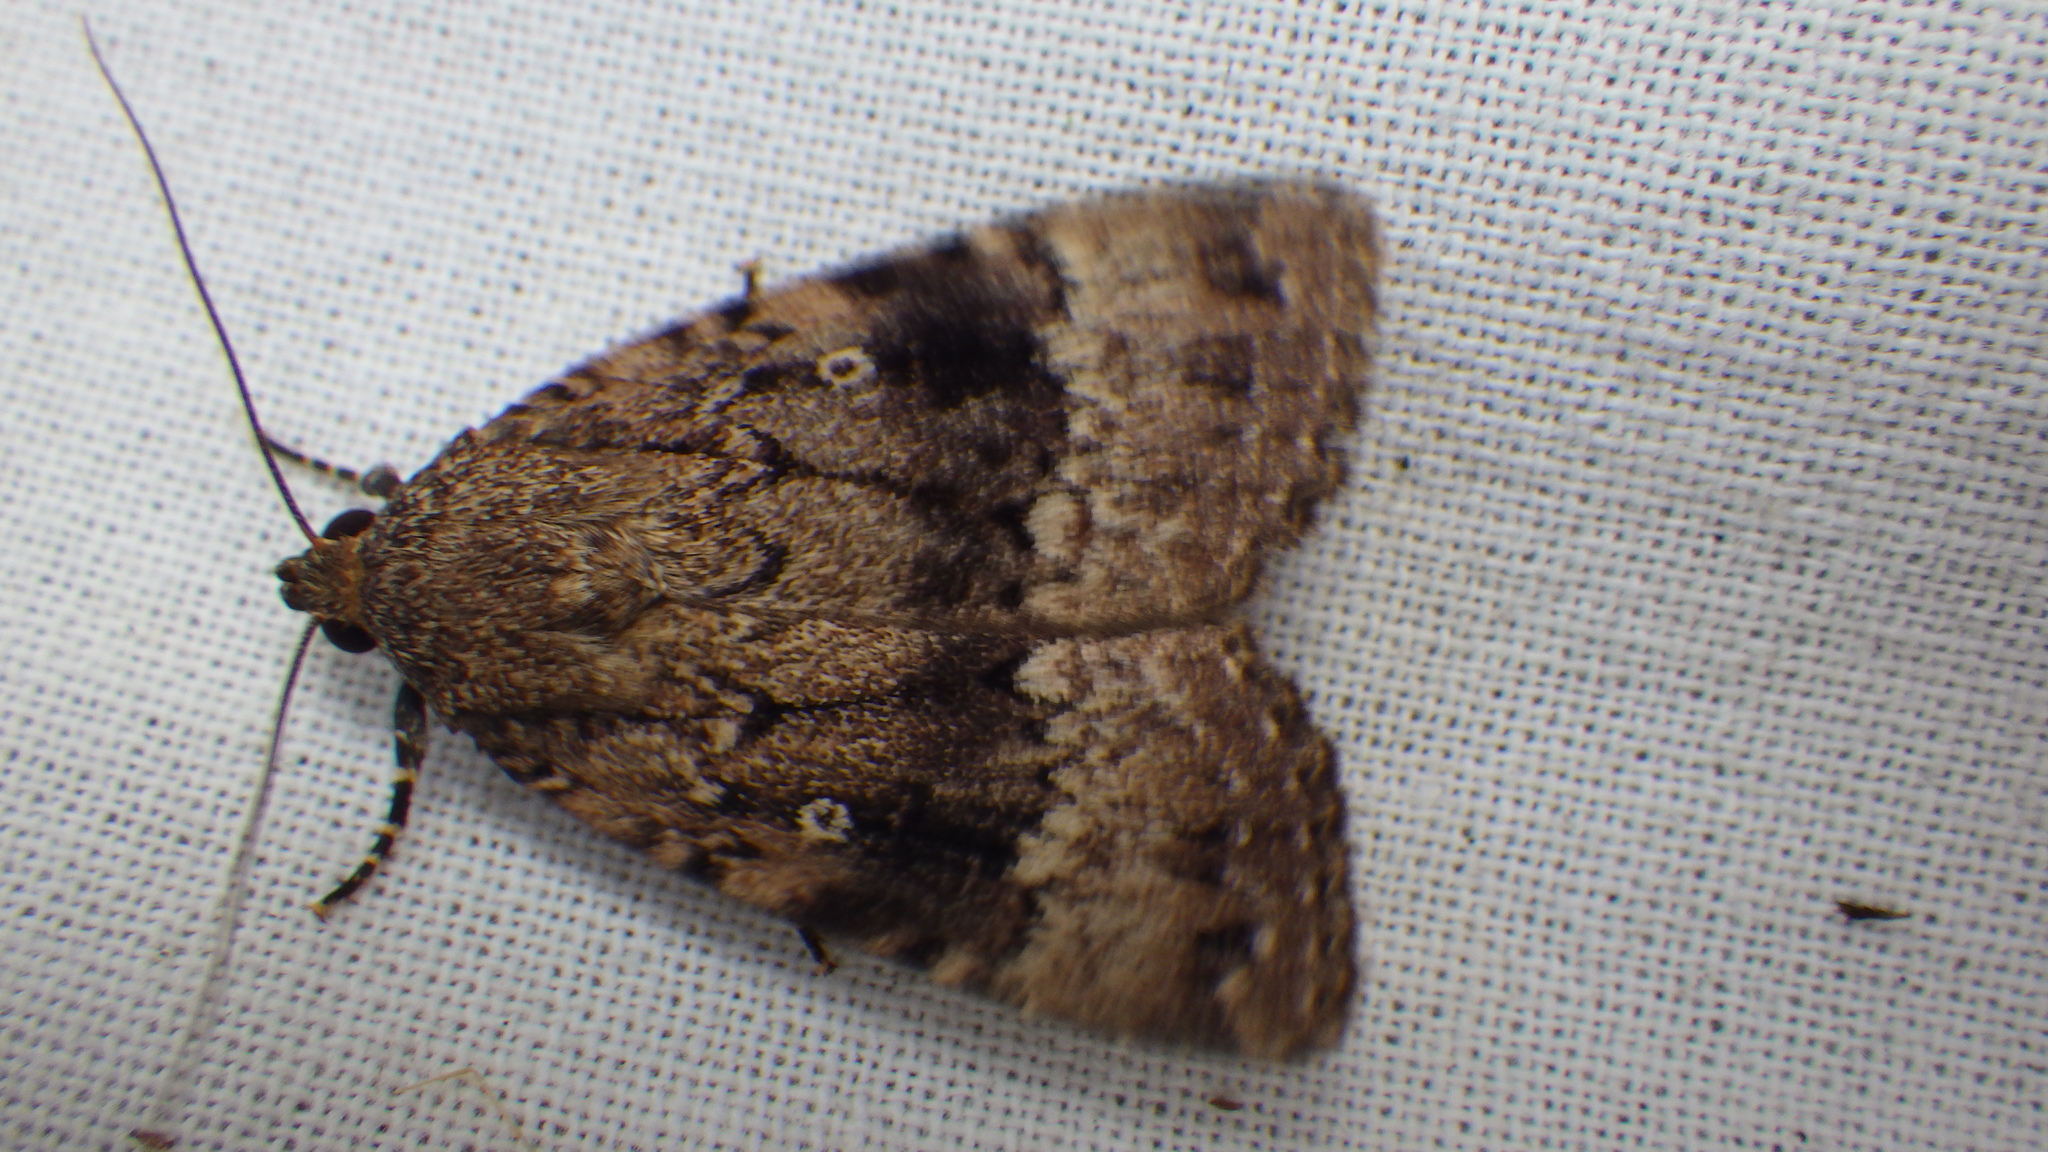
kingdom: Animalia
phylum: Arthropoda
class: Insecta
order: Lepidoptera
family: Noctuidae
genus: Amphipyra
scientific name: Amphipyra pyramidea
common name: Copper underwing
